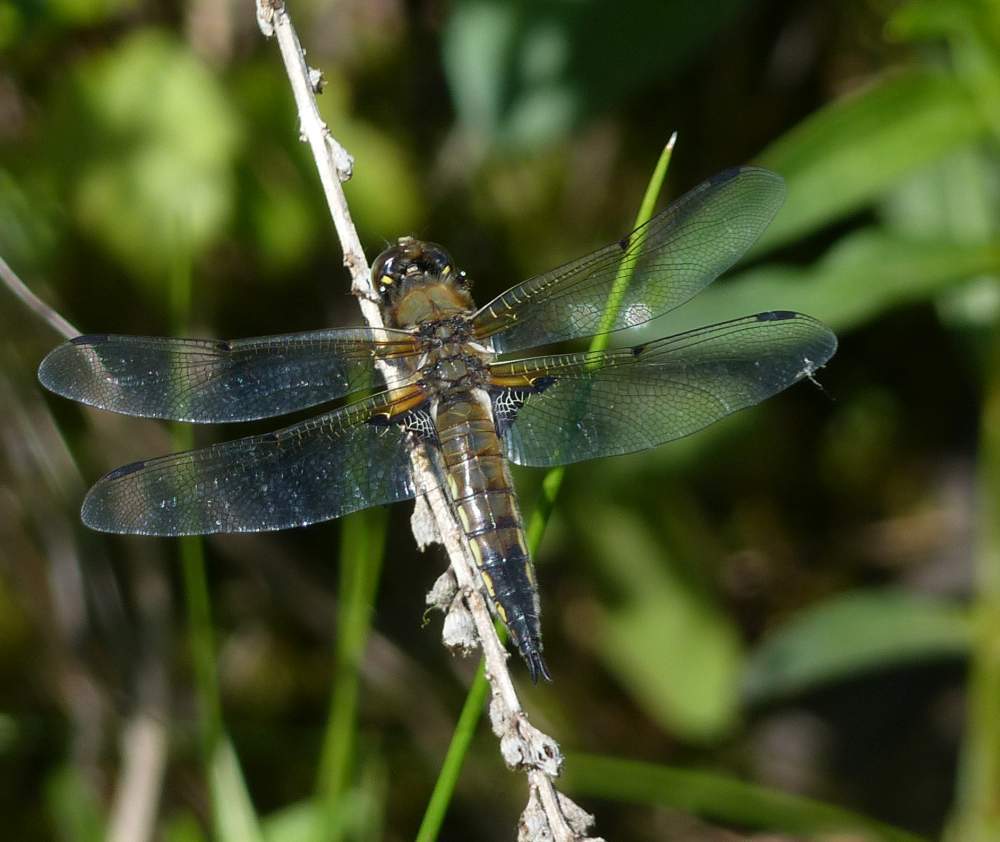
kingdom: Animalia
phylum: Arthropoda
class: Insecta
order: Odonata
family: Libellulidae
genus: Libellula
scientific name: Libellula quadrimaculata
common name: Four-spotted chaser
